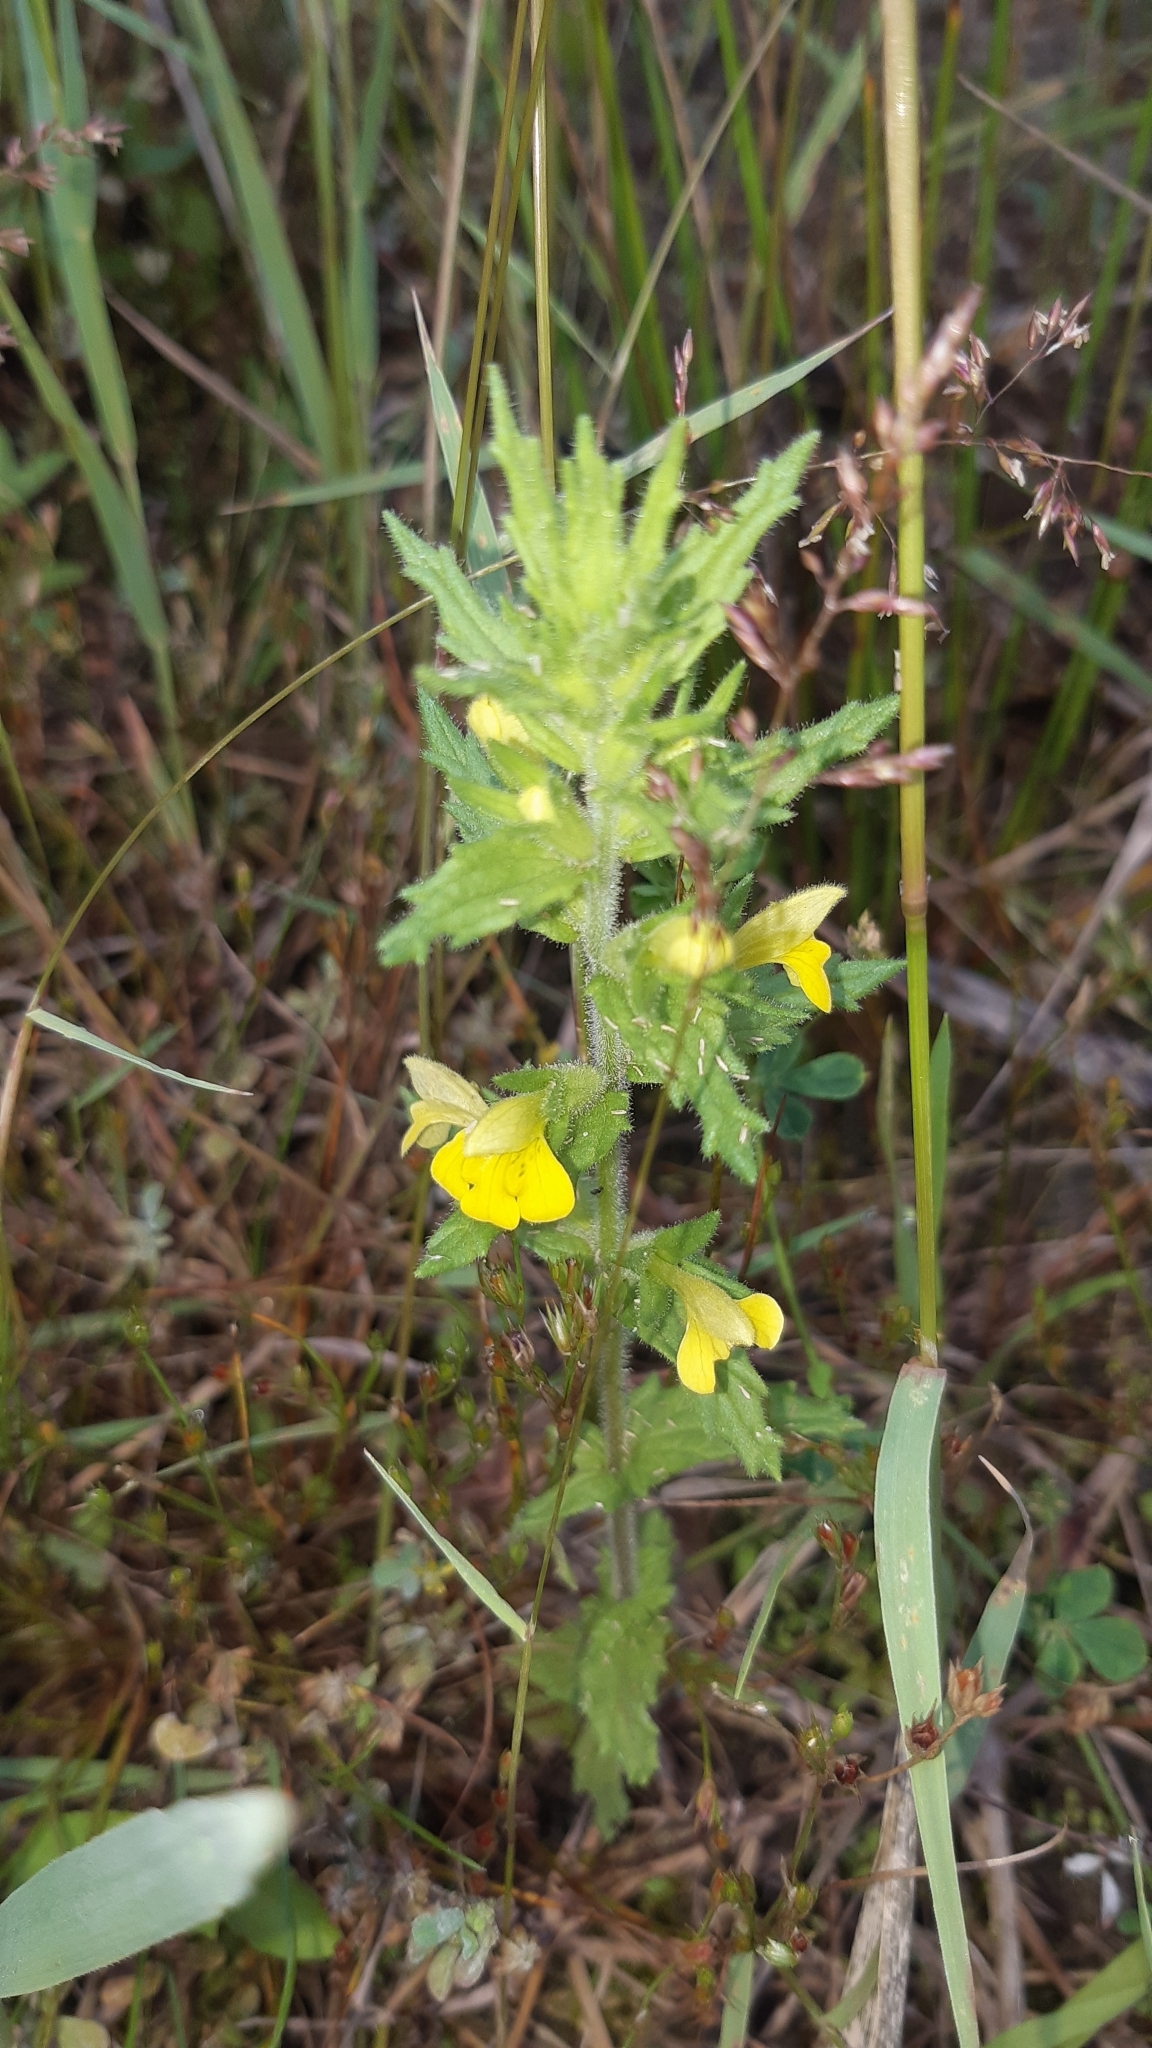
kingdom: Plantae
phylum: Tracheophyta
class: Magnoliopsida
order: Lamiales
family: Orobanchaceae
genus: Bellardia
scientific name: Bellardia viscosa
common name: Sticky parentucellia
